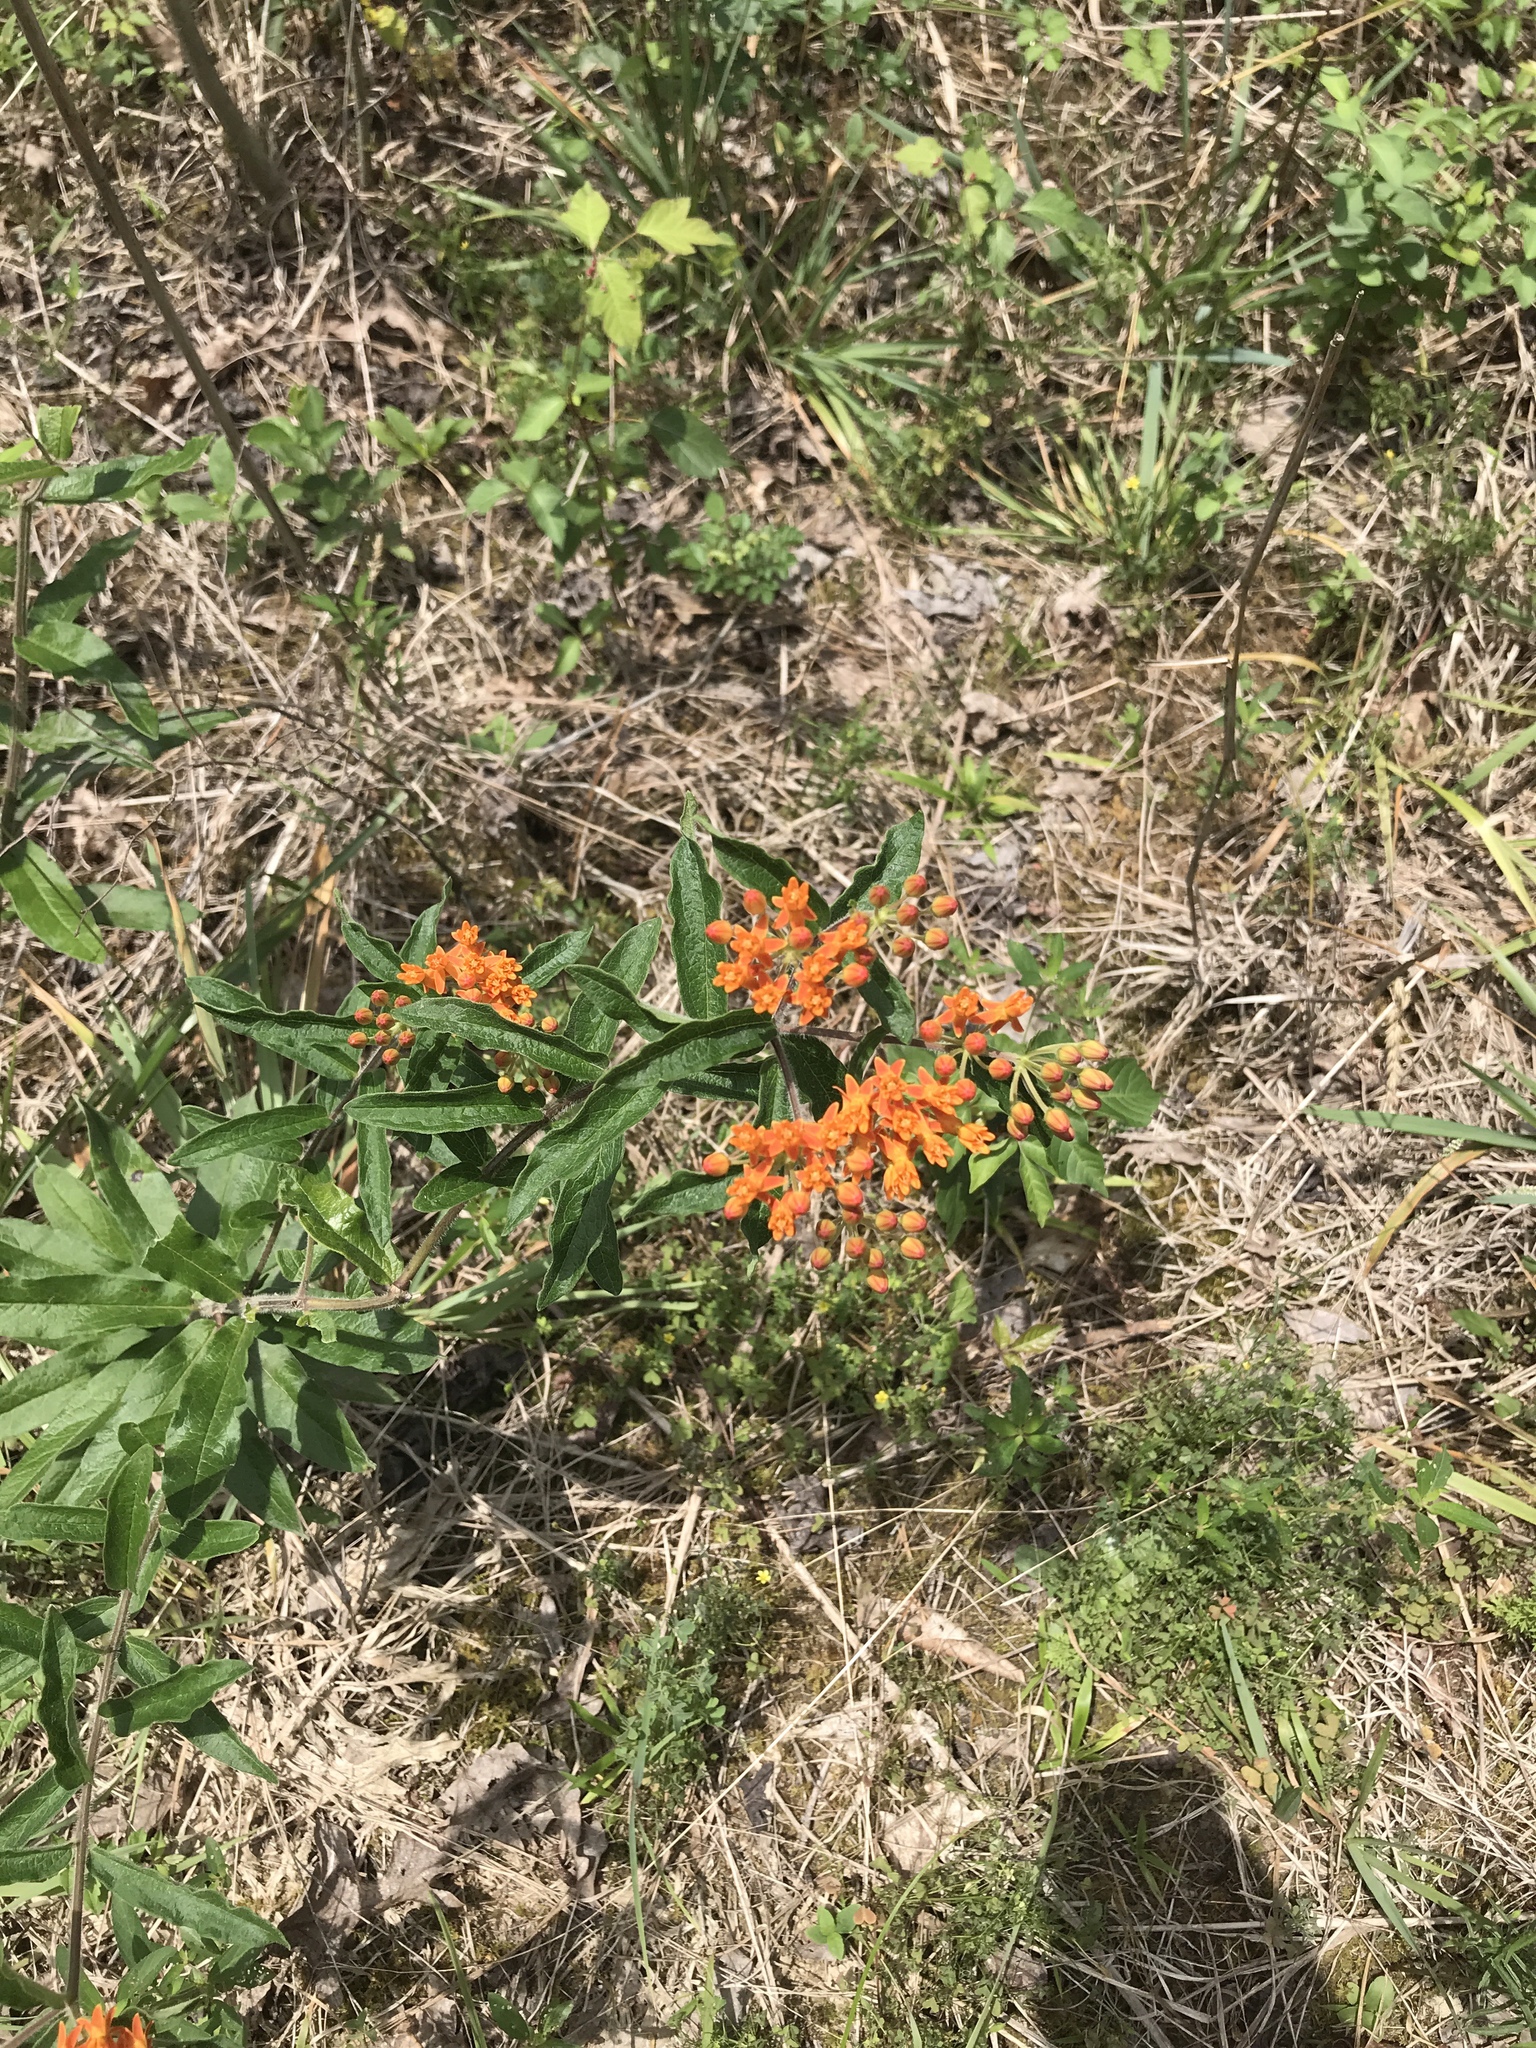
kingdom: Plantae
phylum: Tracheophyta
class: Magnoliopsida
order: Gentianales
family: Apocynaceae
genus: Asclepias
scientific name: Asclepias tuberosa
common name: Butterfly milkweed
